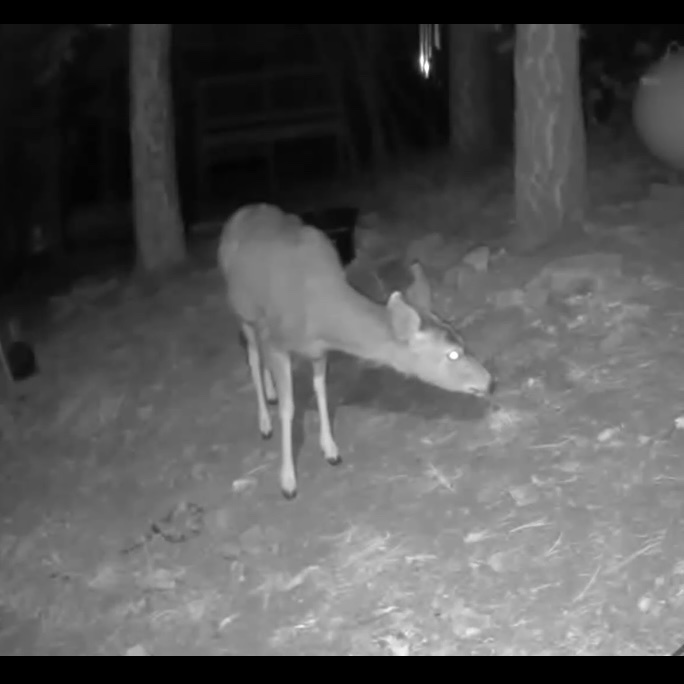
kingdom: Animalia
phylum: Chordata
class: Mammalia
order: Artiodactyla
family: Cervidae
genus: Odocoileus
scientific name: Odocoileus hemionus
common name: Mule deer
